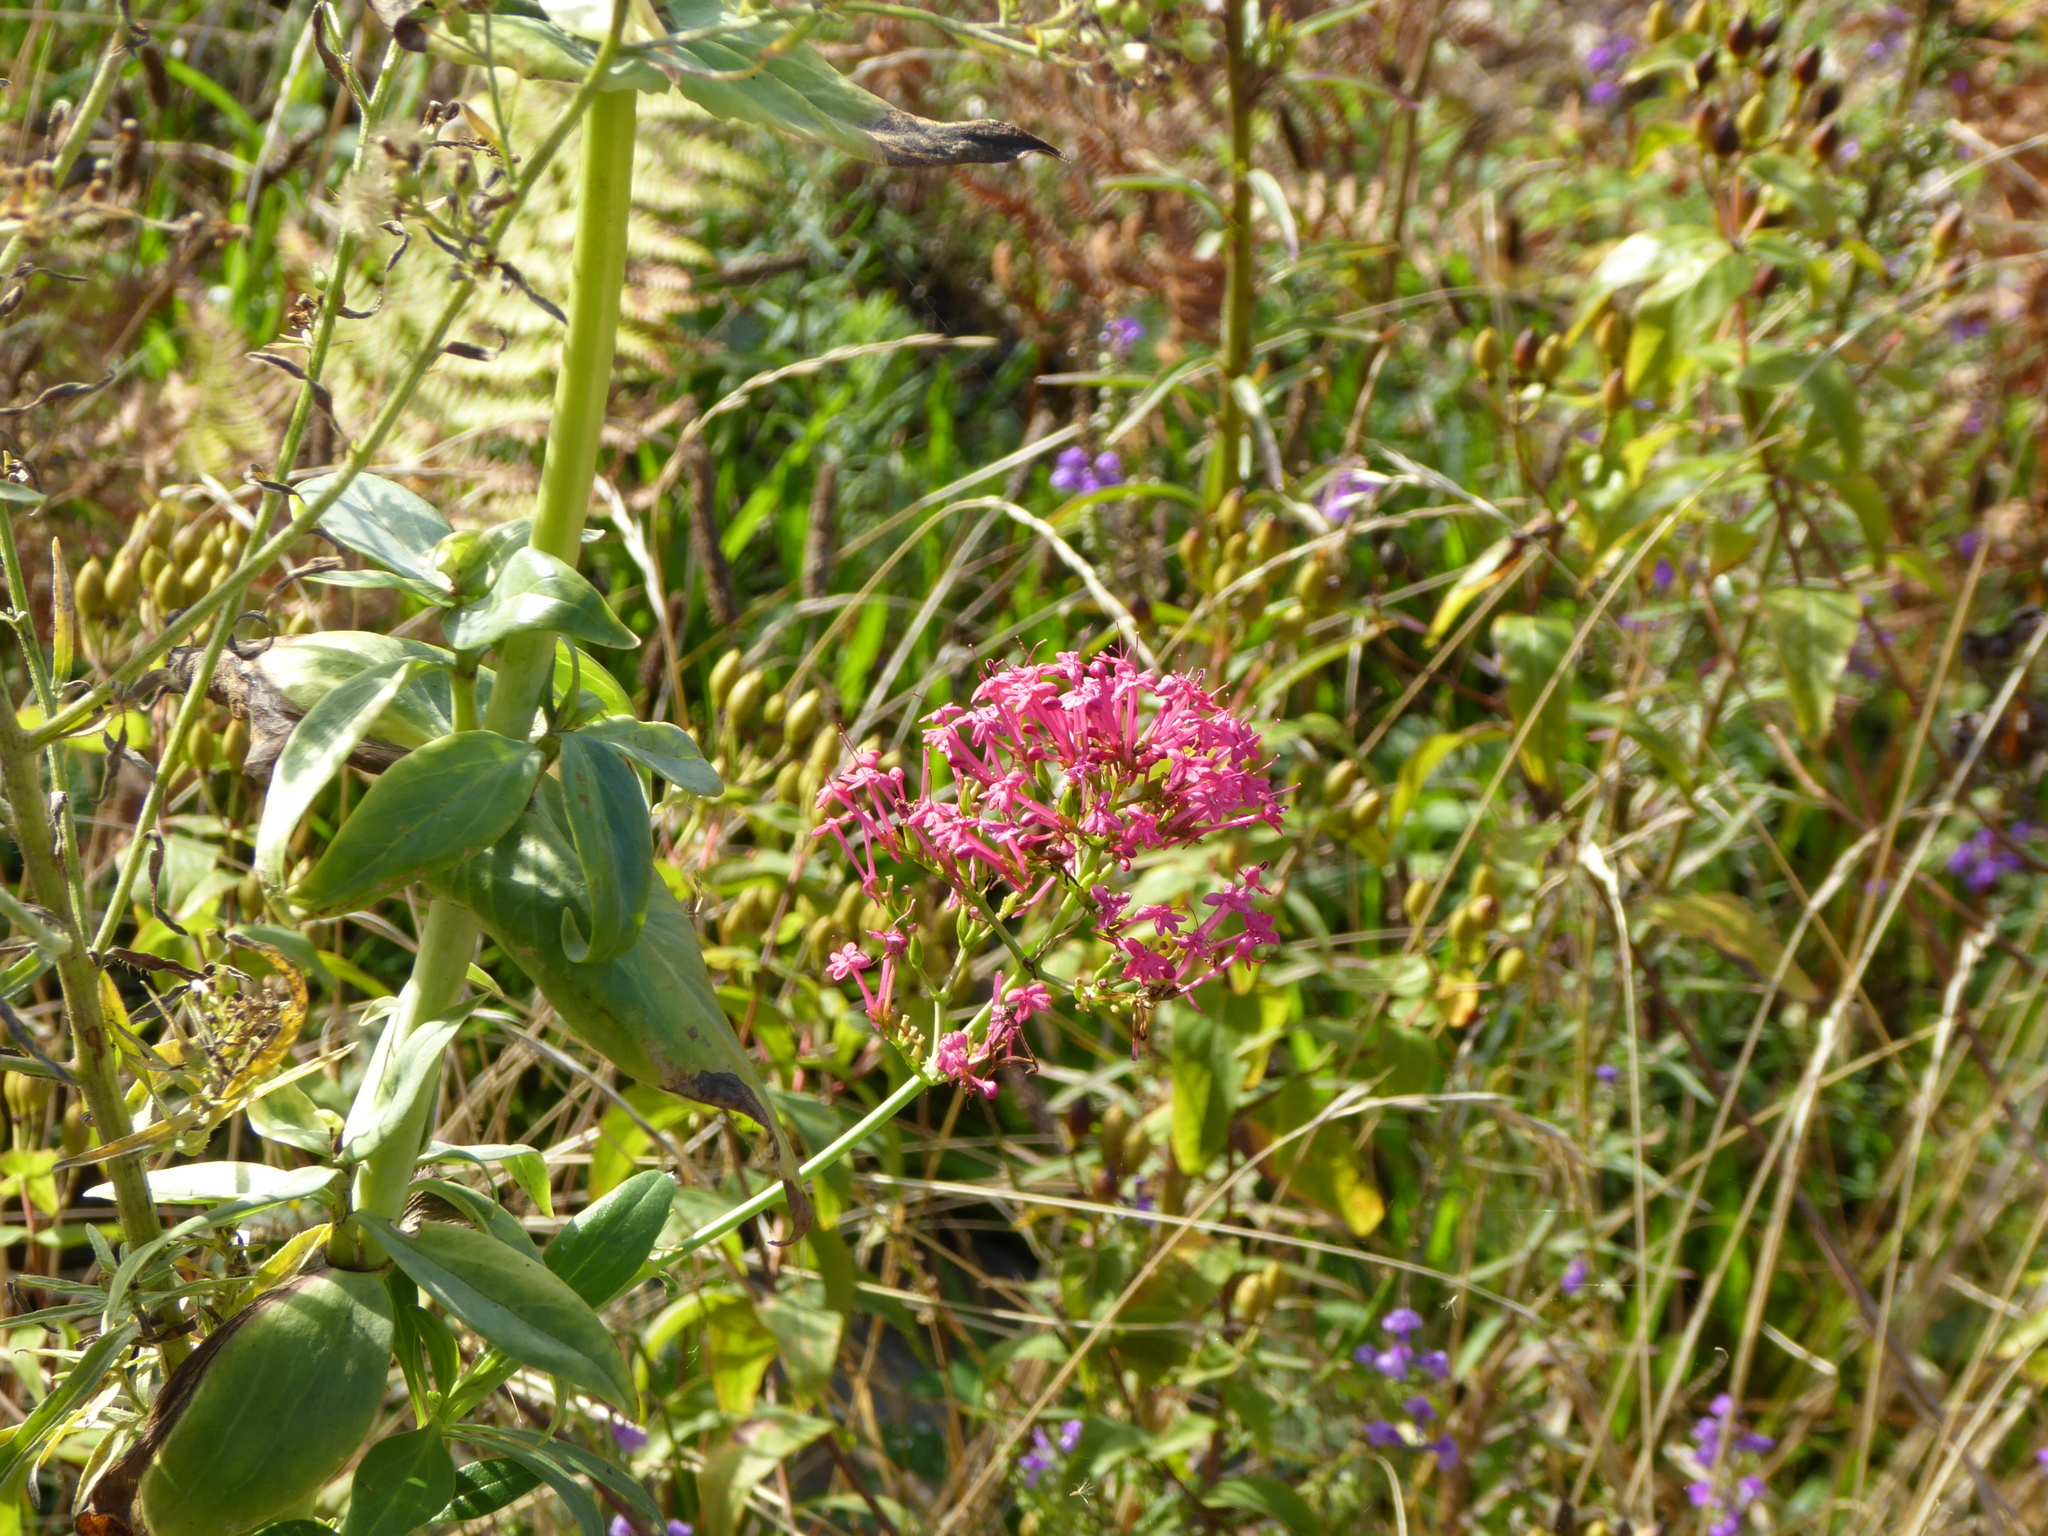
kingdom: Plantae
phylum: Tracheophyta
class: Magnoliopsida
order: Dipsacales
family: Caprifoliaceae
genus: Centranthus
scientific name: Centranthus ruber
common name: Red valerian
